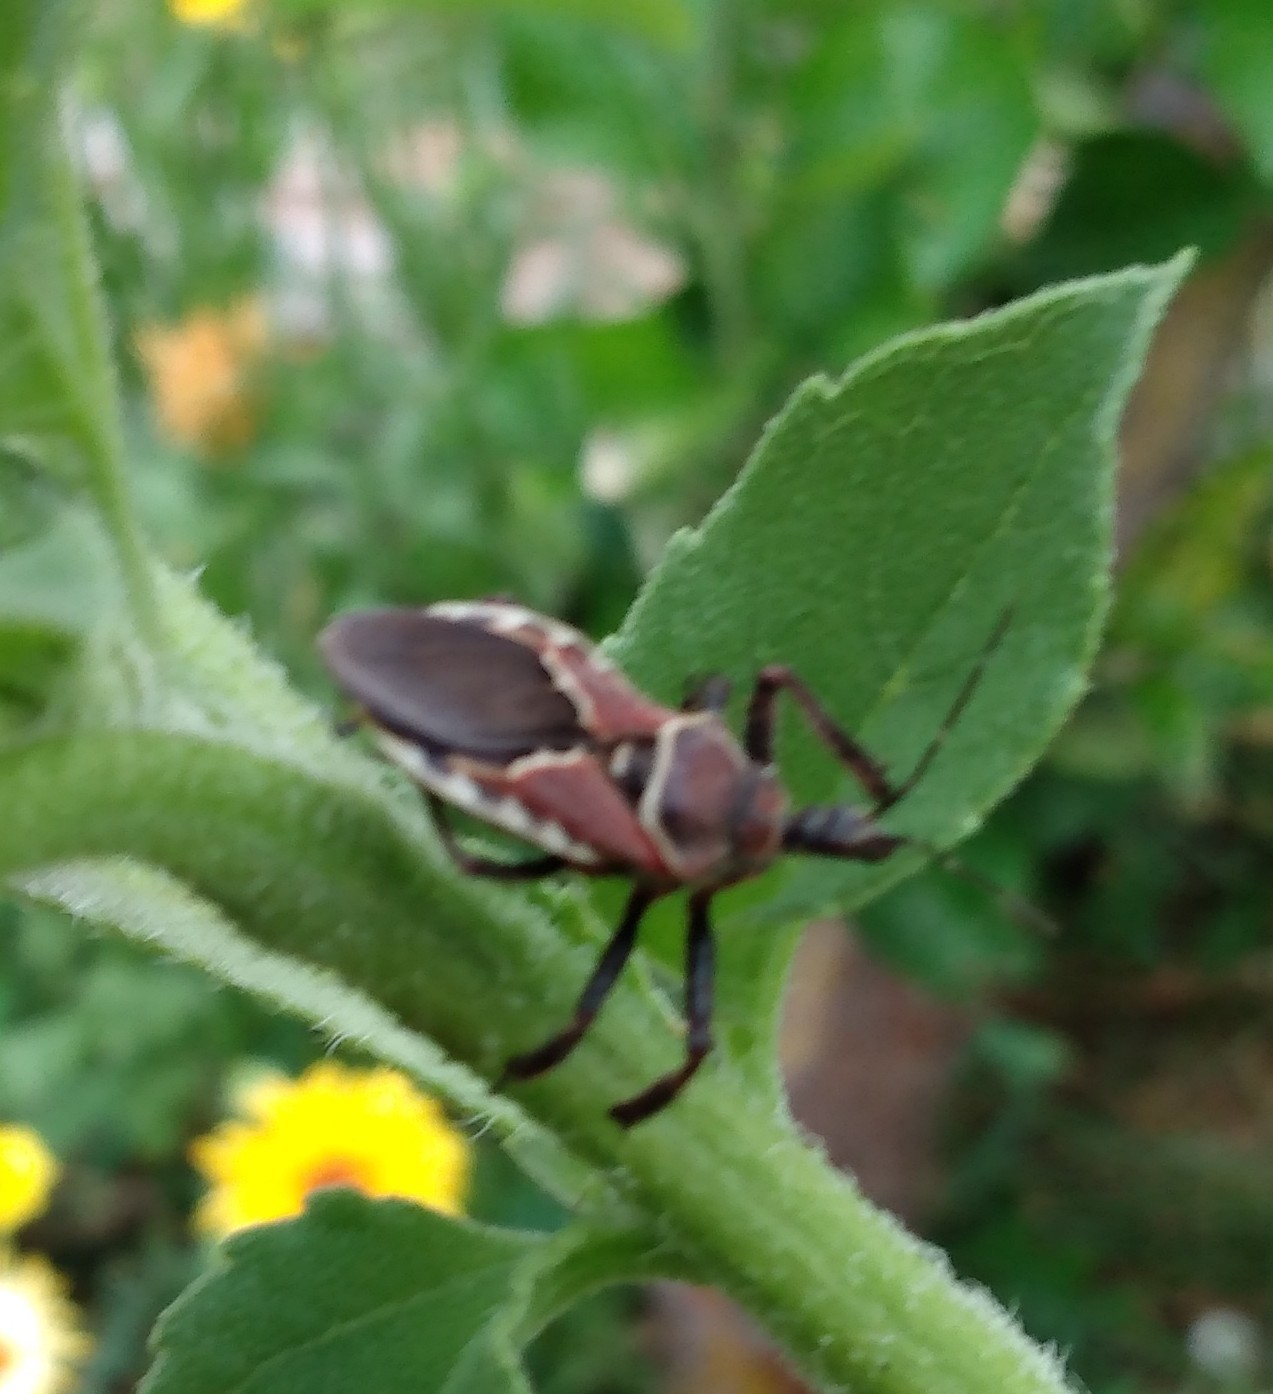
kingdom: Animalia
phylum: Arthropoda
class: Insecta
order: Hemiptera
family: Reduviidae
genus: Apiomerus
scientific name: Apiomerus spissipes
